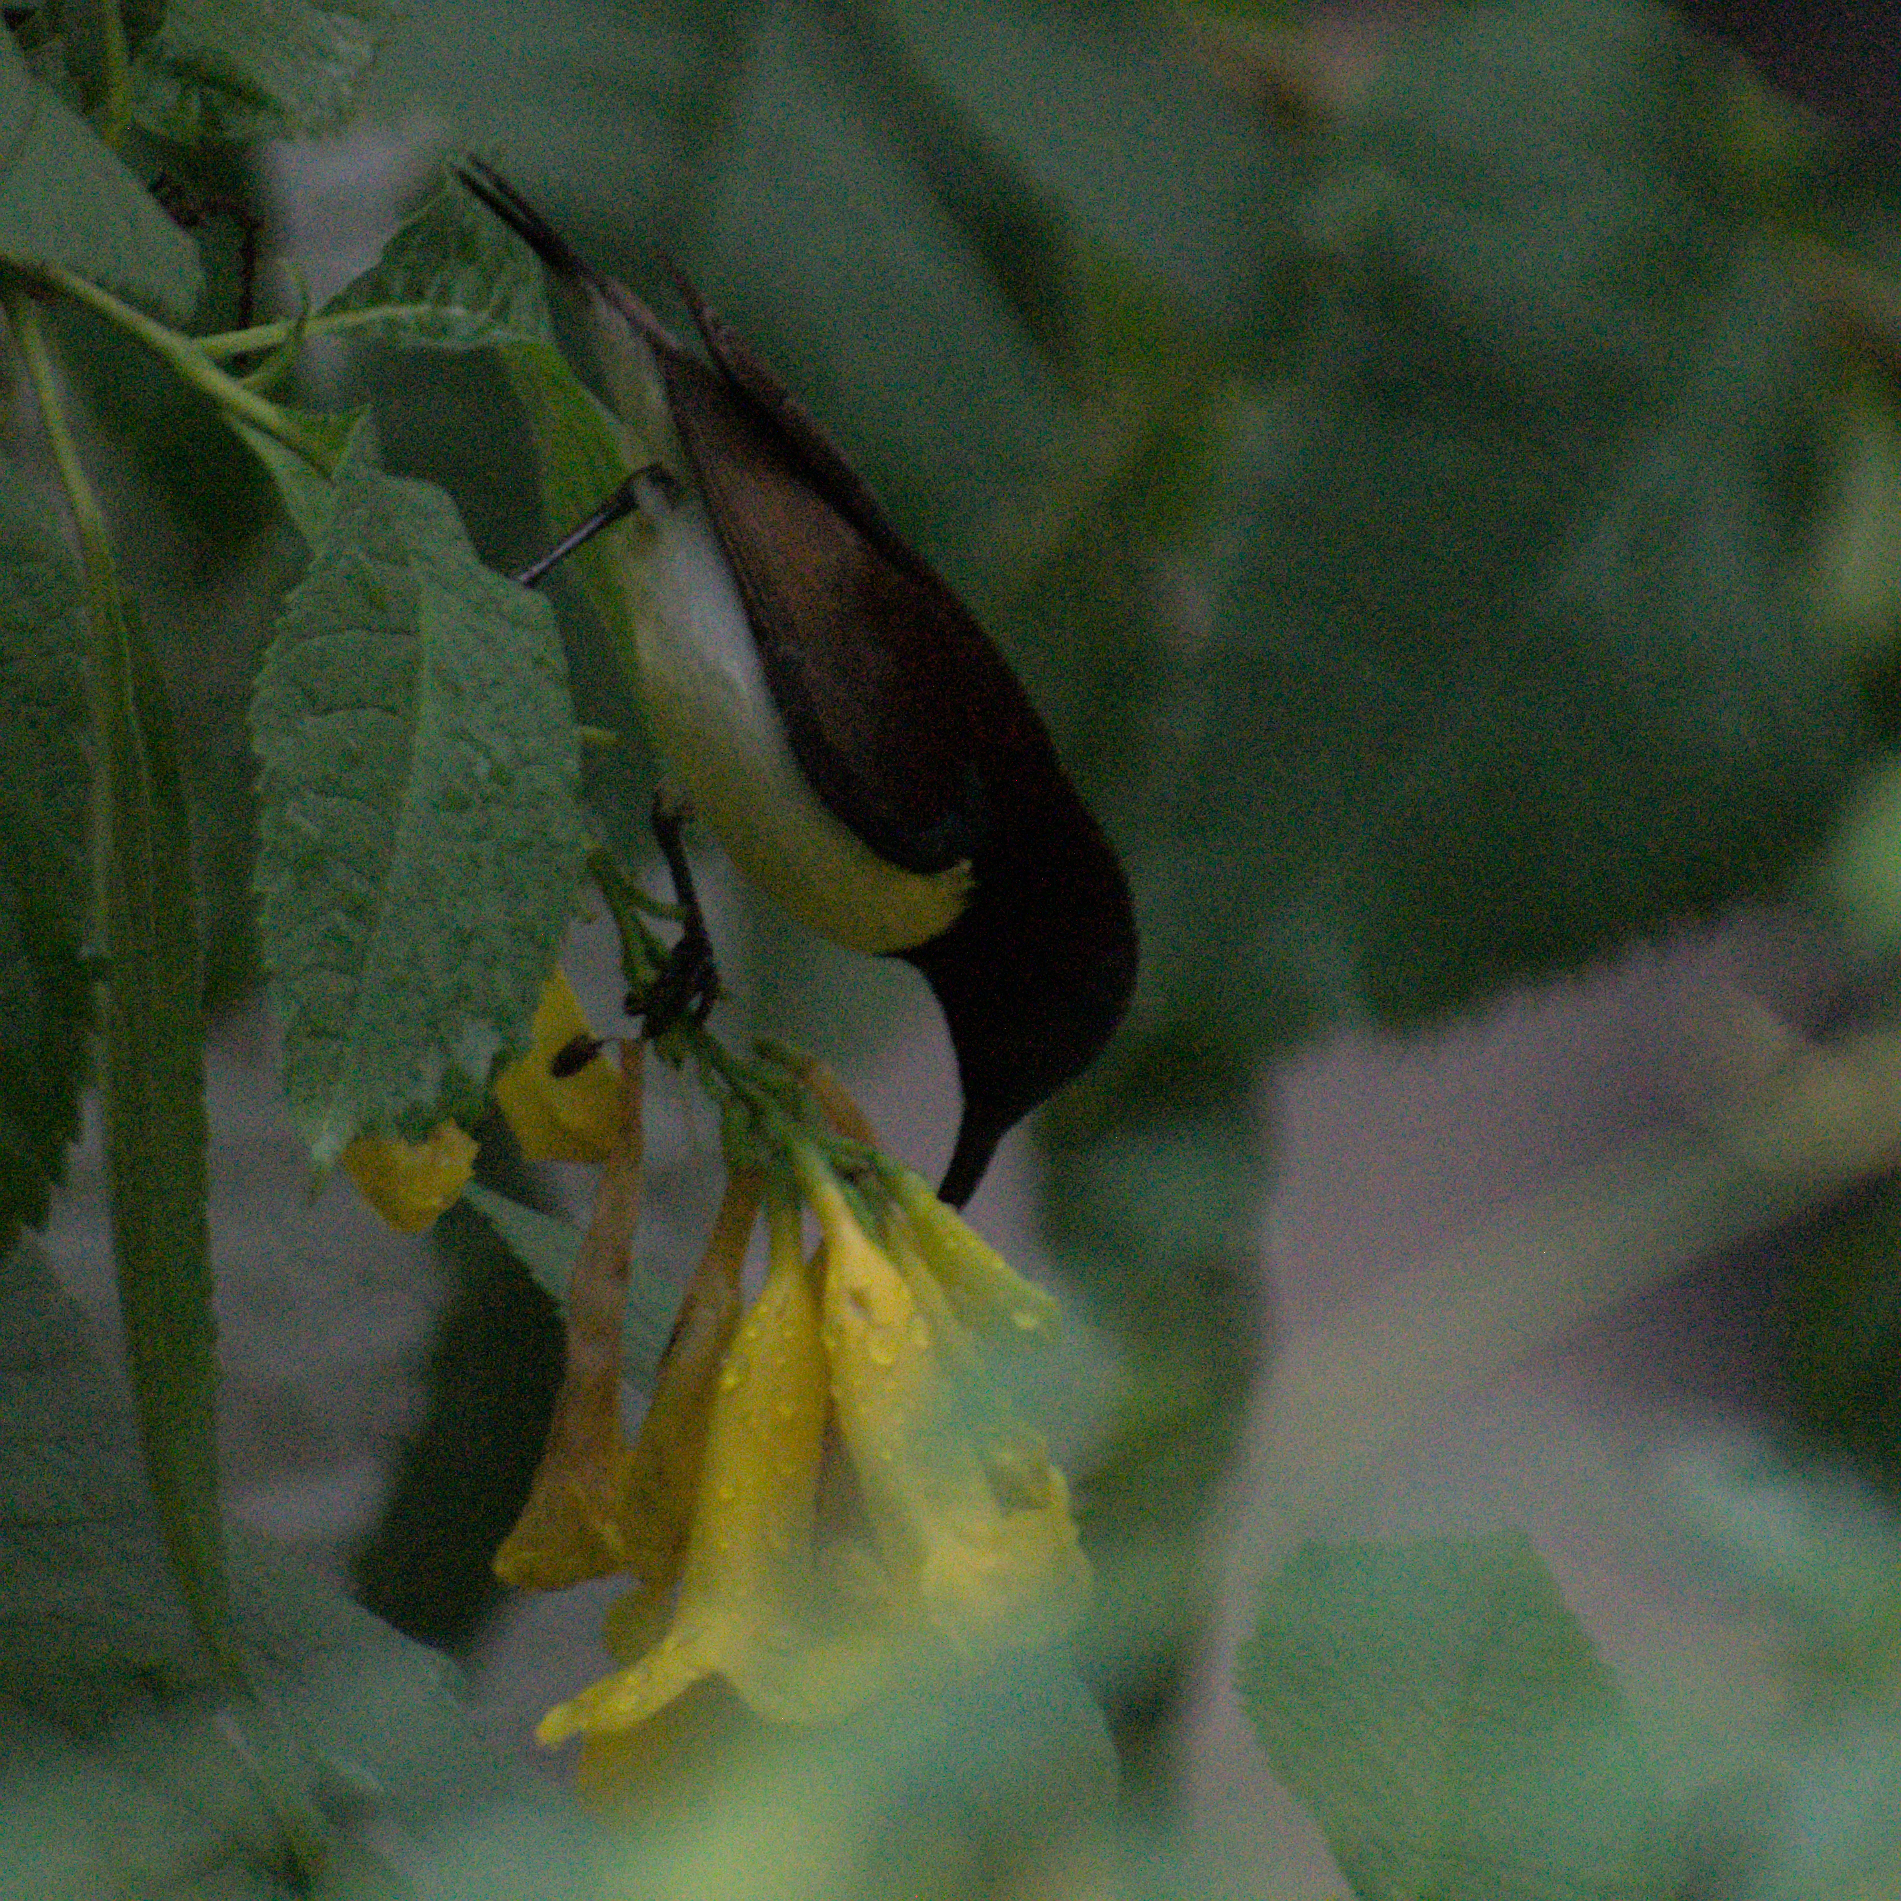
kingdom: Animalia
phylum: Chordata
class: Aves
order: Passeriformes
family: Nectariniidae
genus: Leptocoma
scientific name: Leptocoma zeylonica
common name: Purple-rumped sunbird
